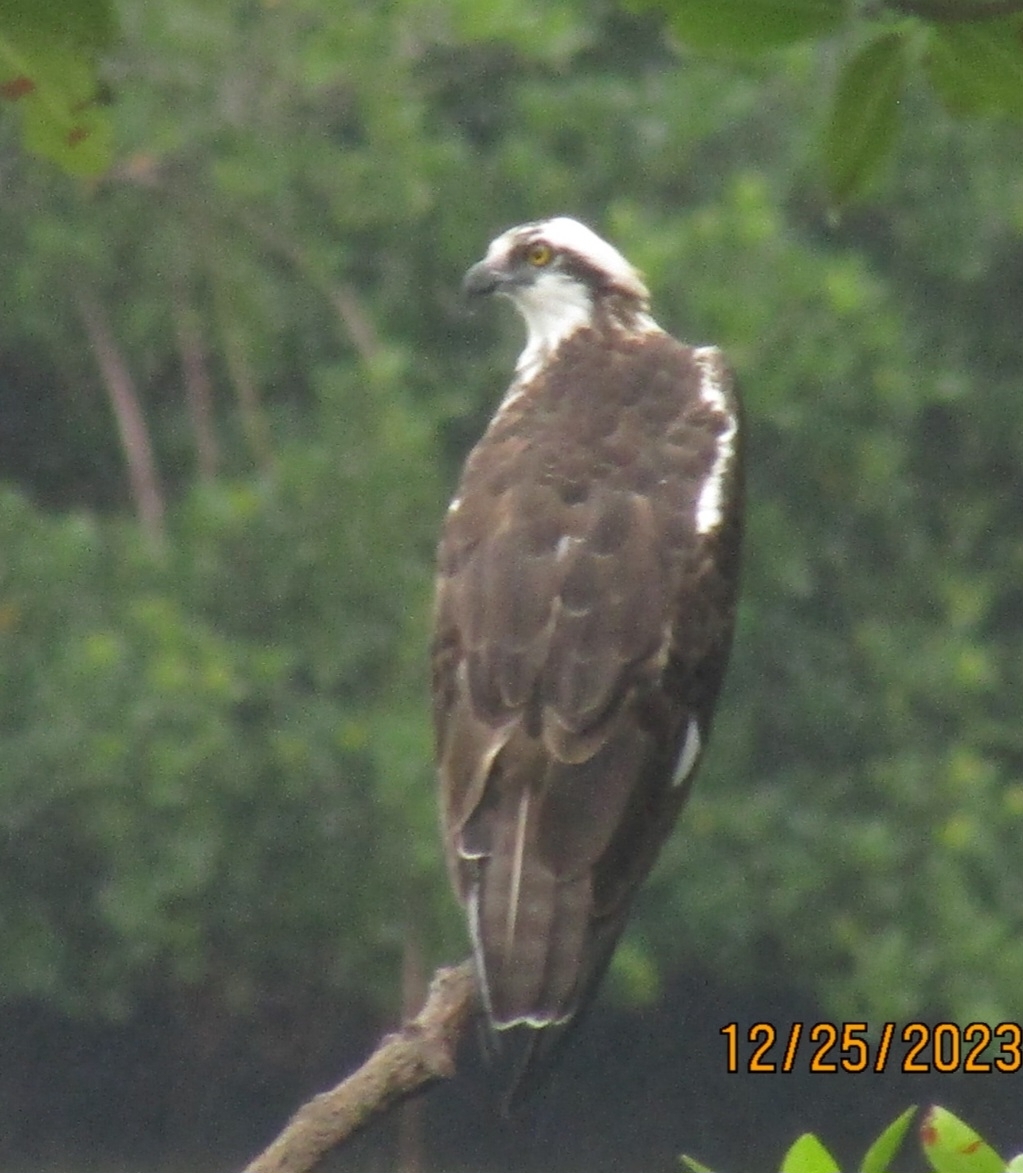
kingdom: Animalia
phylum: Chordata
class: Aves
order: Accipitriformes
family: Pandionidae
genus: Pandion
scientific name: Pandion haliaetus
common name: Osprey
